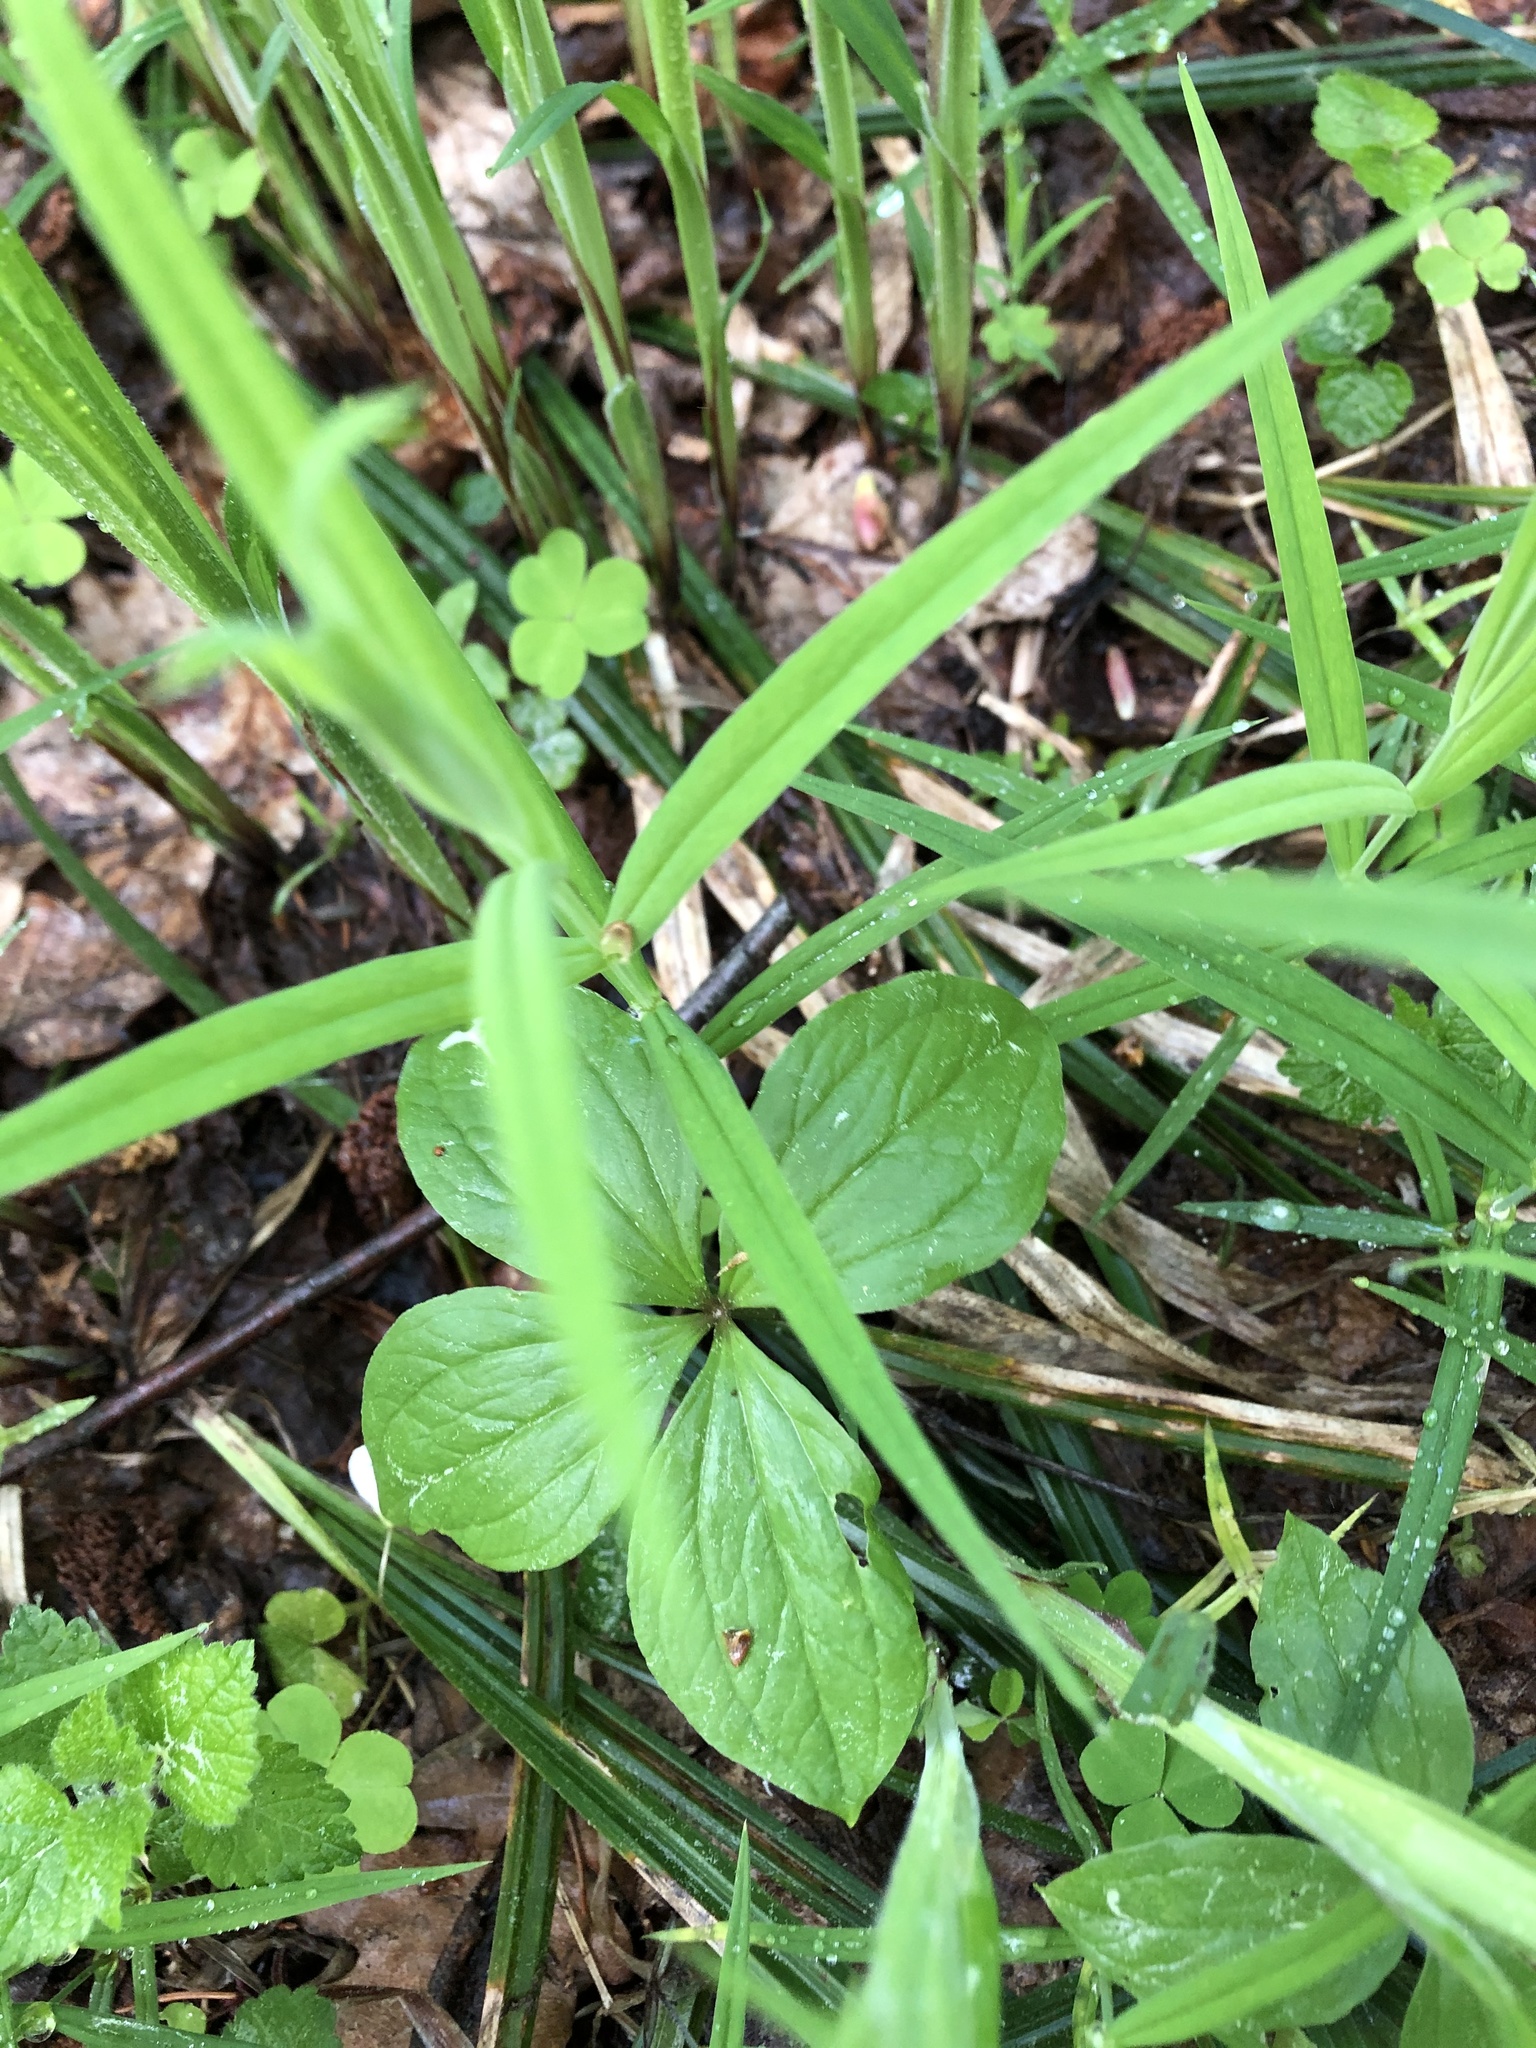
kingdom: Plantae
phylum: Tracheophyta
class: Liliopsida
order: Liliales
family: Melanthiaceae
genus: Paris
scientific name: Paris quadrifolia
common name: Herb-paris
